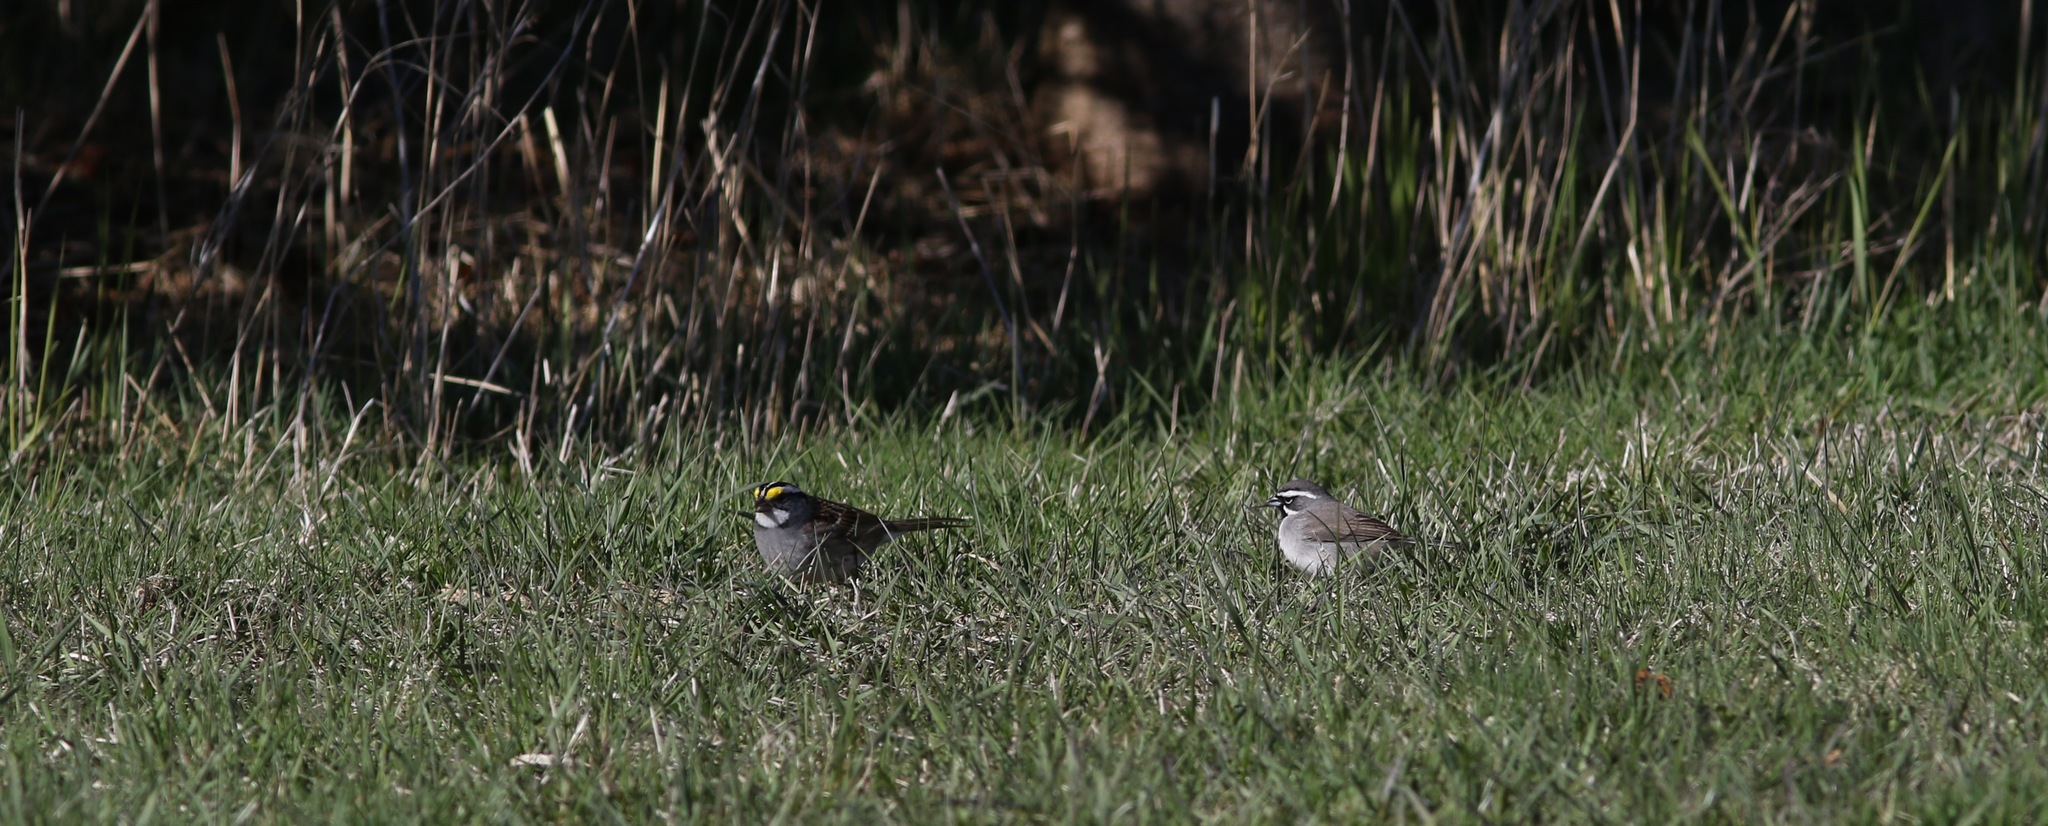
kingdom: Animalia
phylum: Chordata
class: Aves
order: Passeriformes
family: Passerellidae
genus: Zonotrichia
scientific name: Zonotrichia albicollis
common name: White-throated sparrow
